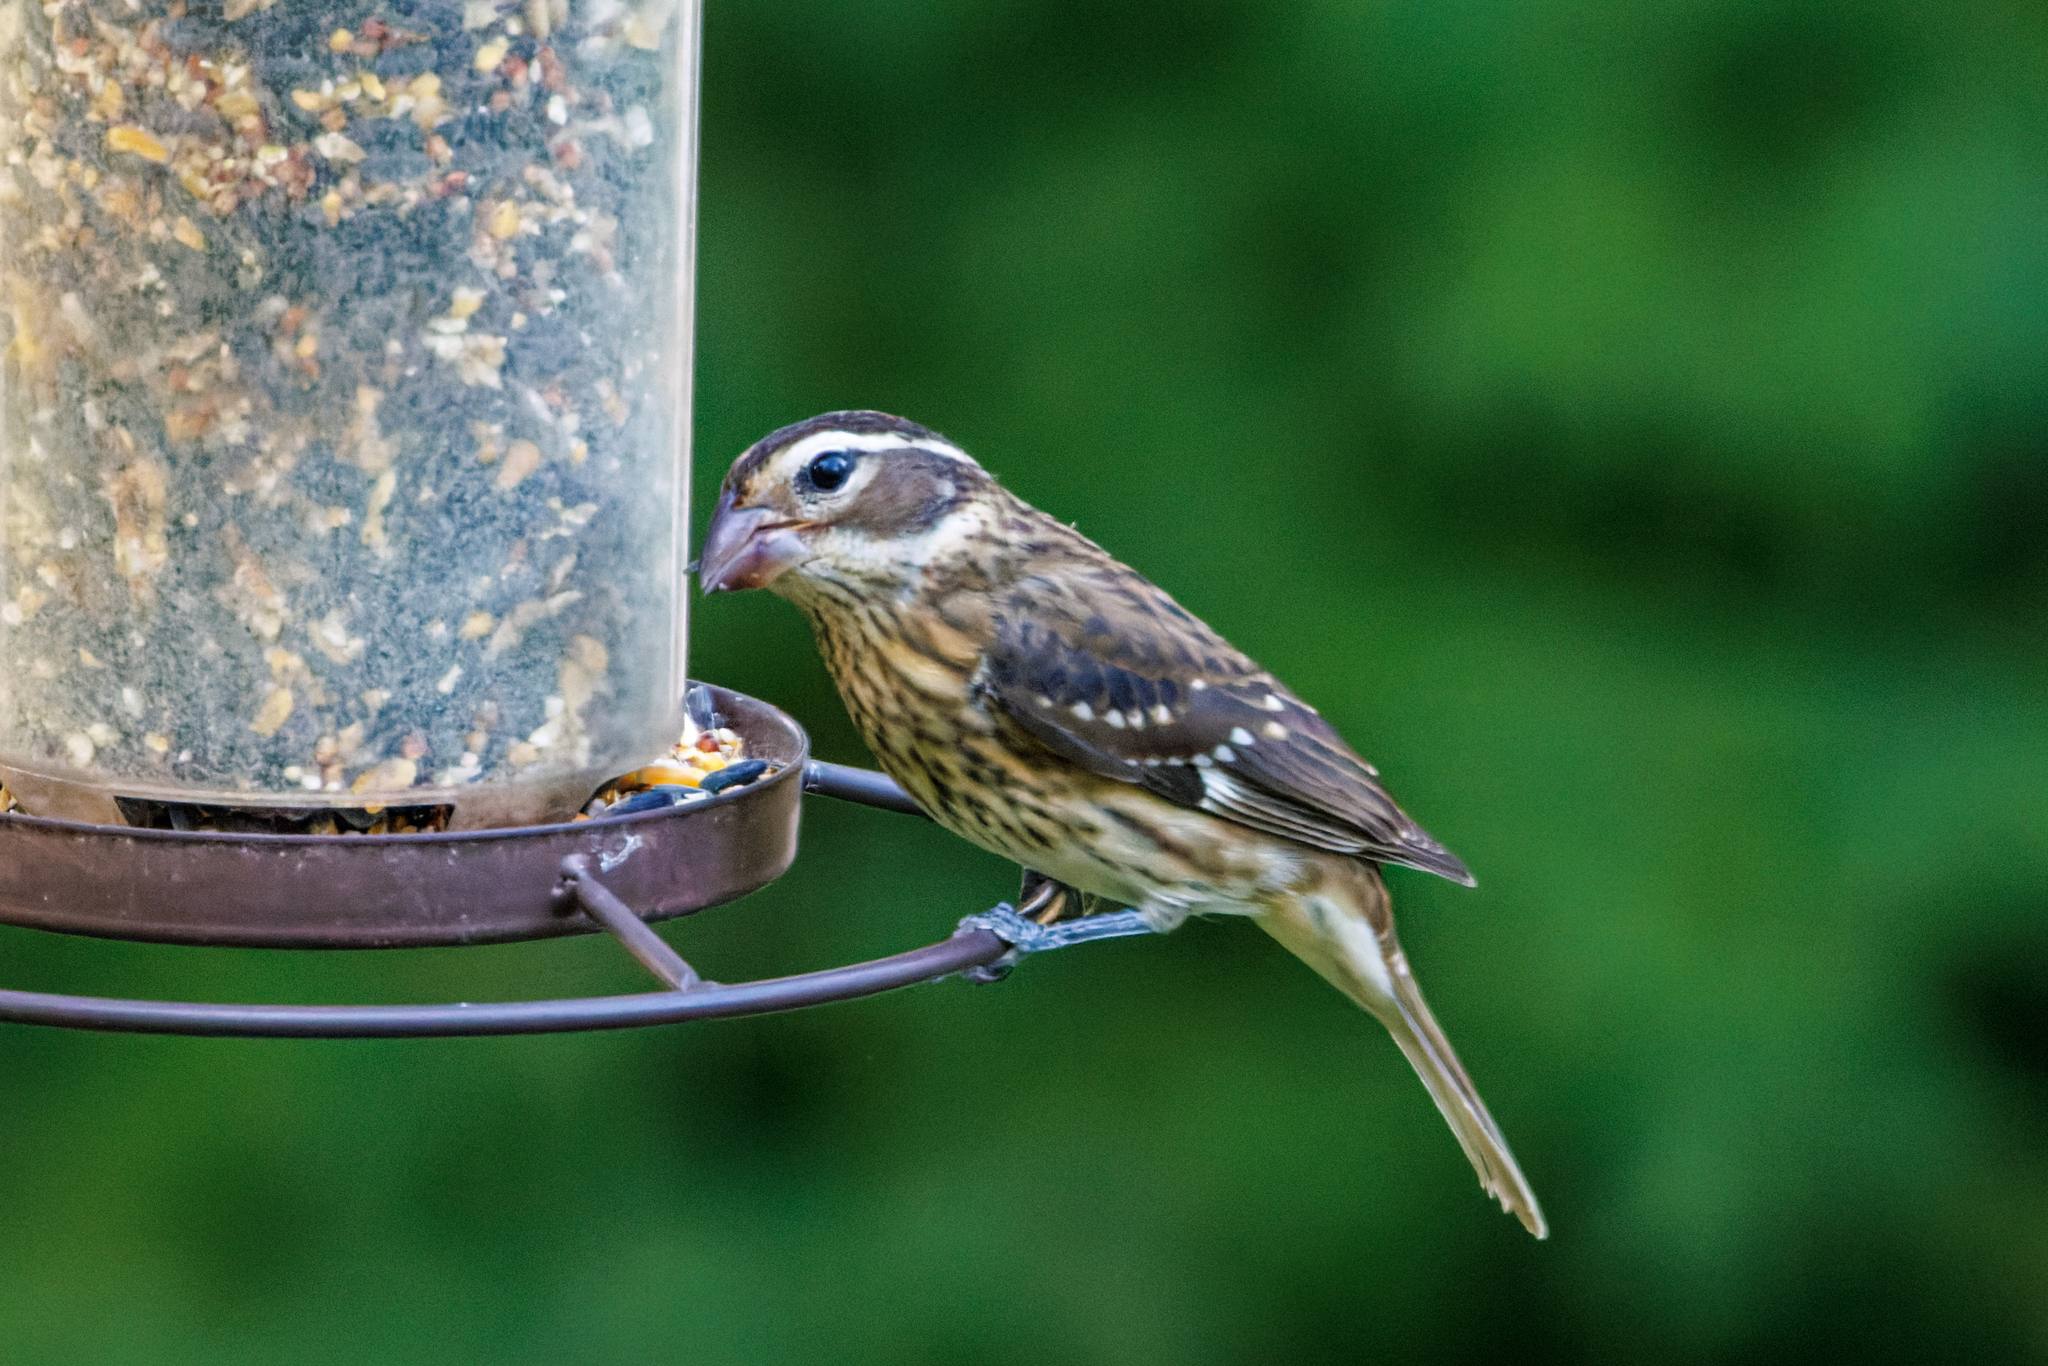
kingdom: Animalia
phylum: Chordata
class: Aves
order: Passeriformes
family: Cardinalidae
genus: Pheucticus
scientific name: Pheucticus ludovicianus
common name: Rose-breasted grosbeak
